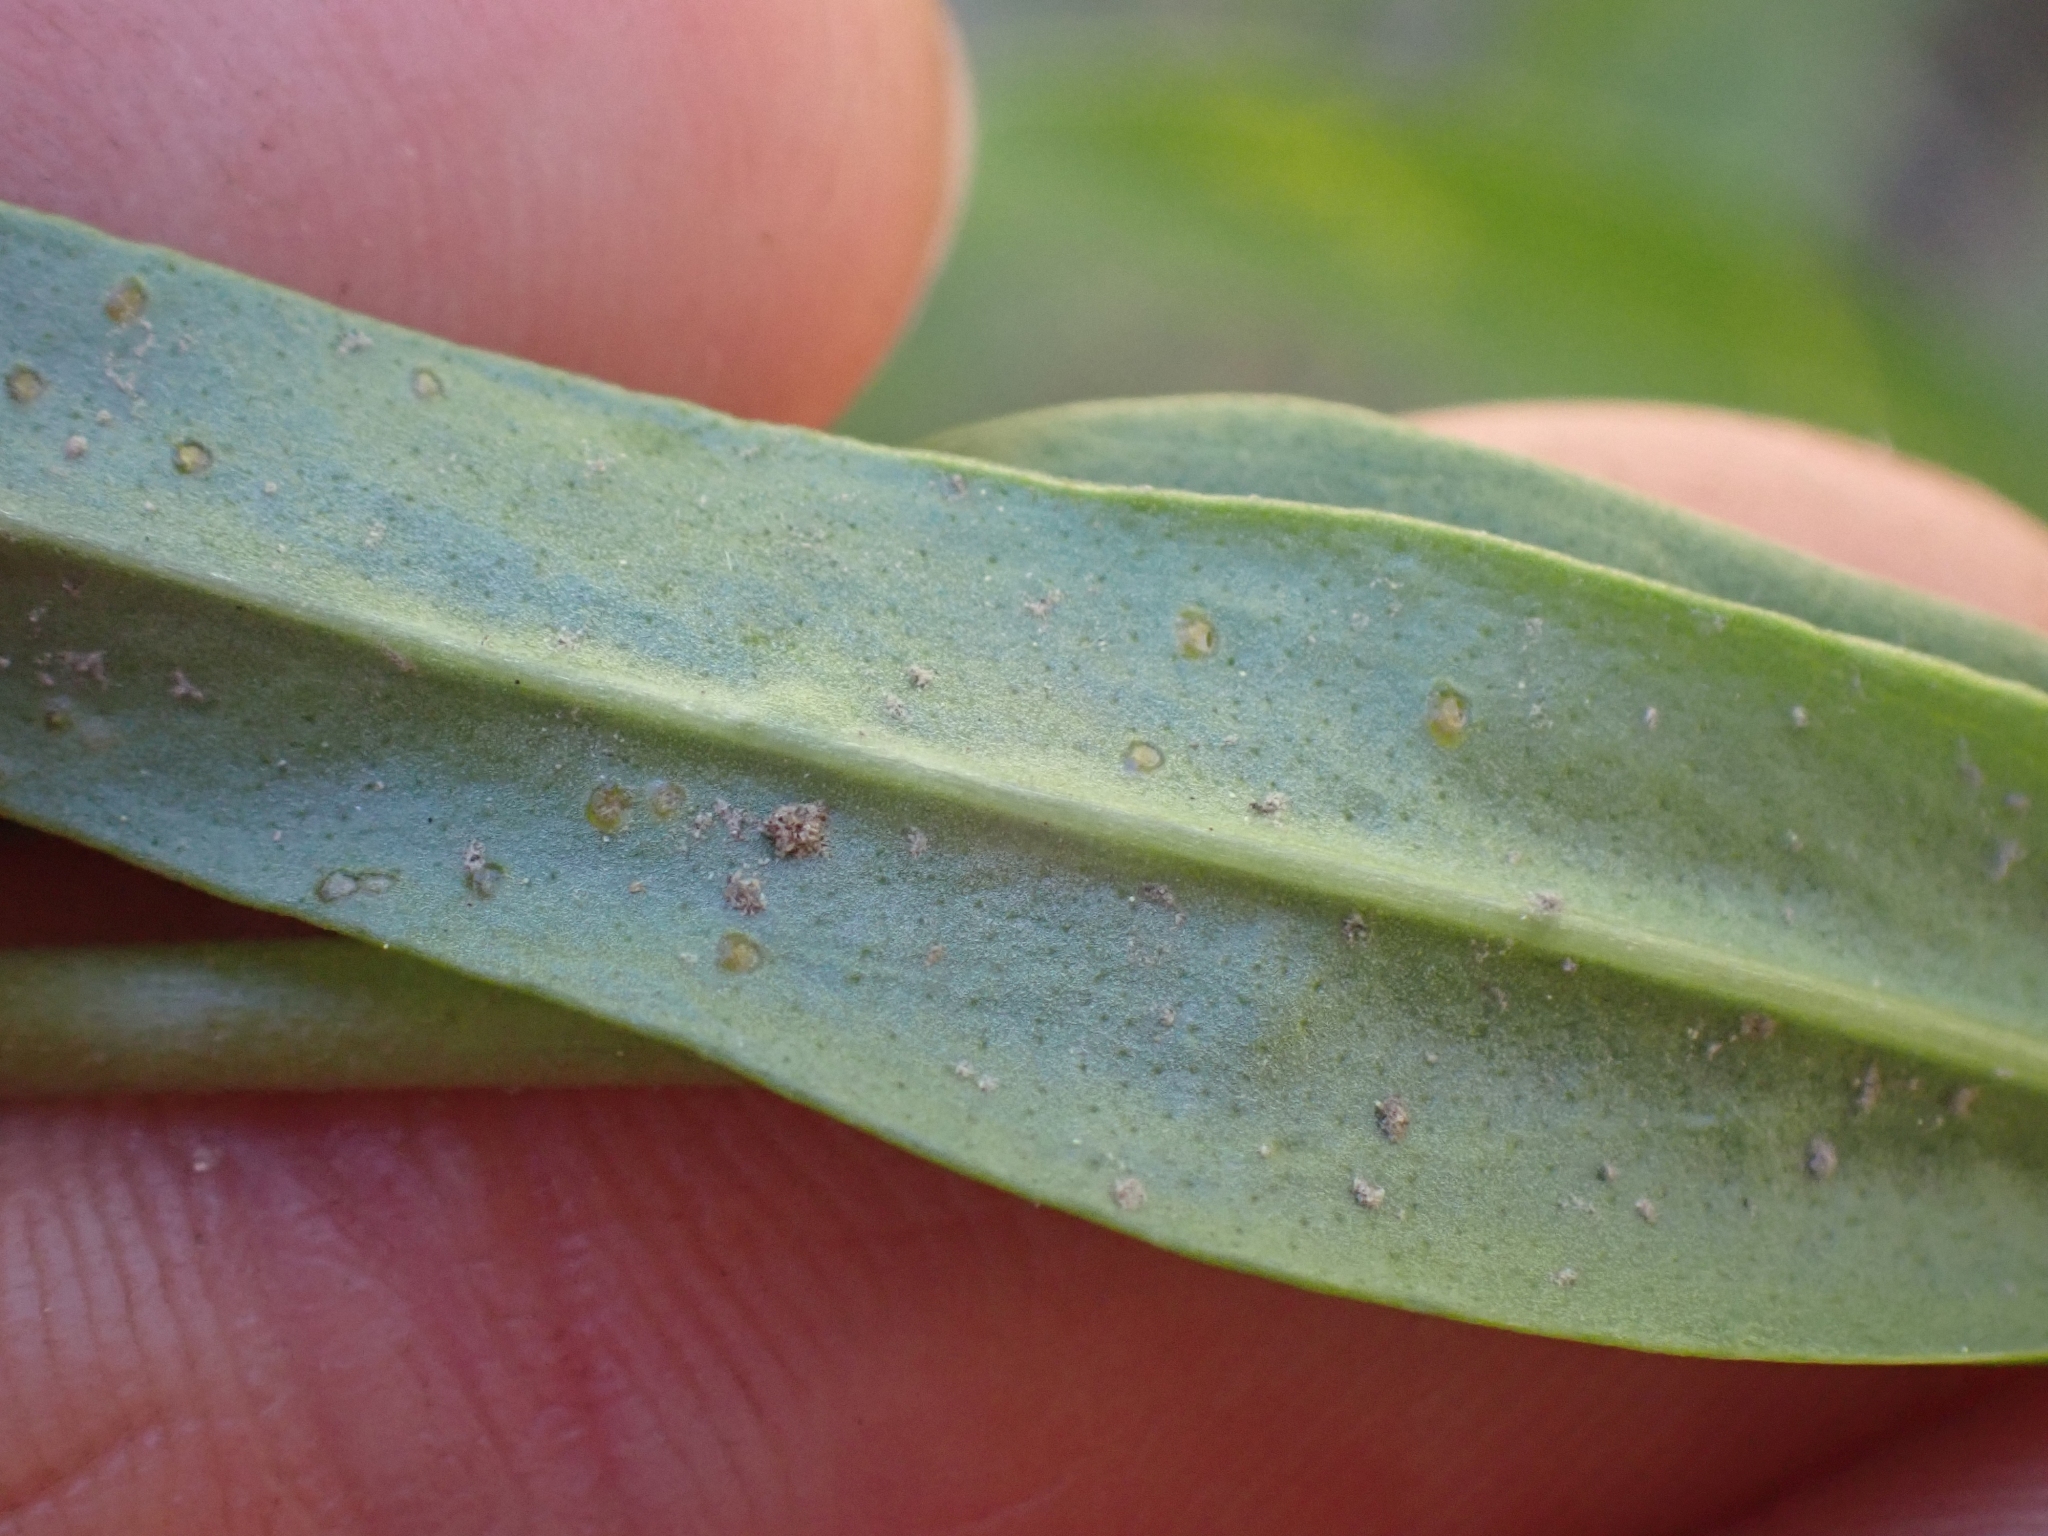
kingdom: Plantae
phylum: Tracheophyta
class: Magnoliopsida
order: Lamiales
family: Plantaginaceae
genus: Penstemon
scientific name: Penstemon confertus
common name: Lesser yellow beardtongue
